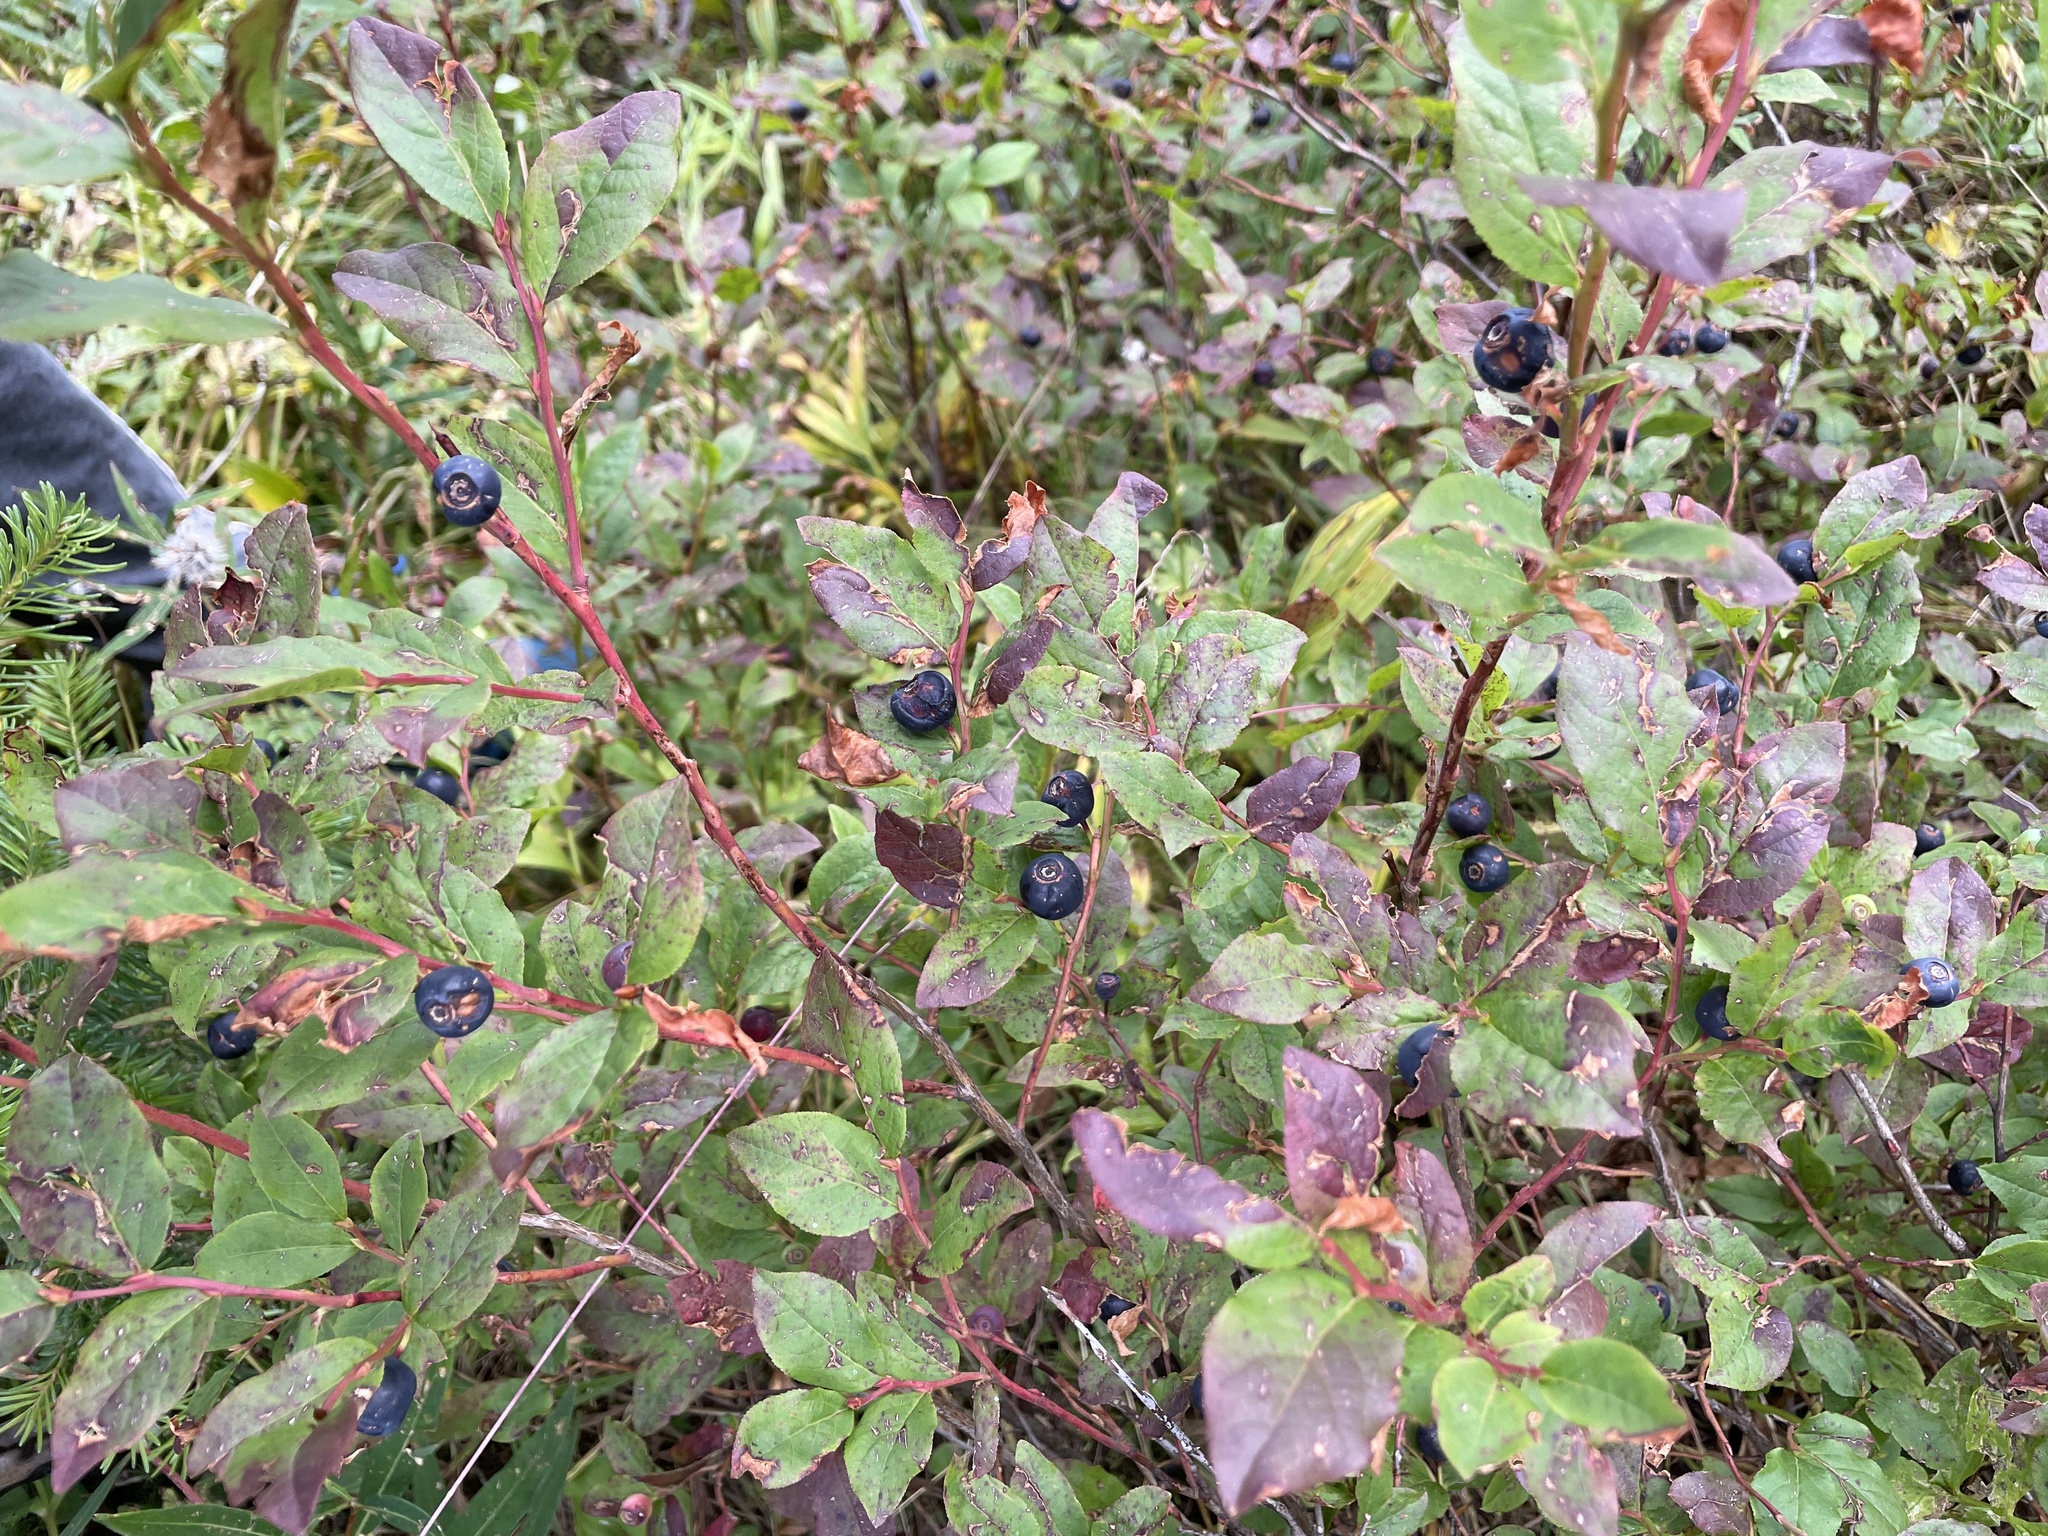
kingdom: Plantae
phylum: Tracheophyta
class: Magnoliopsida
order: Ericales
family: Ericaceae
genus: Vaccinium
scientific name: Vaccinium membranaceum
